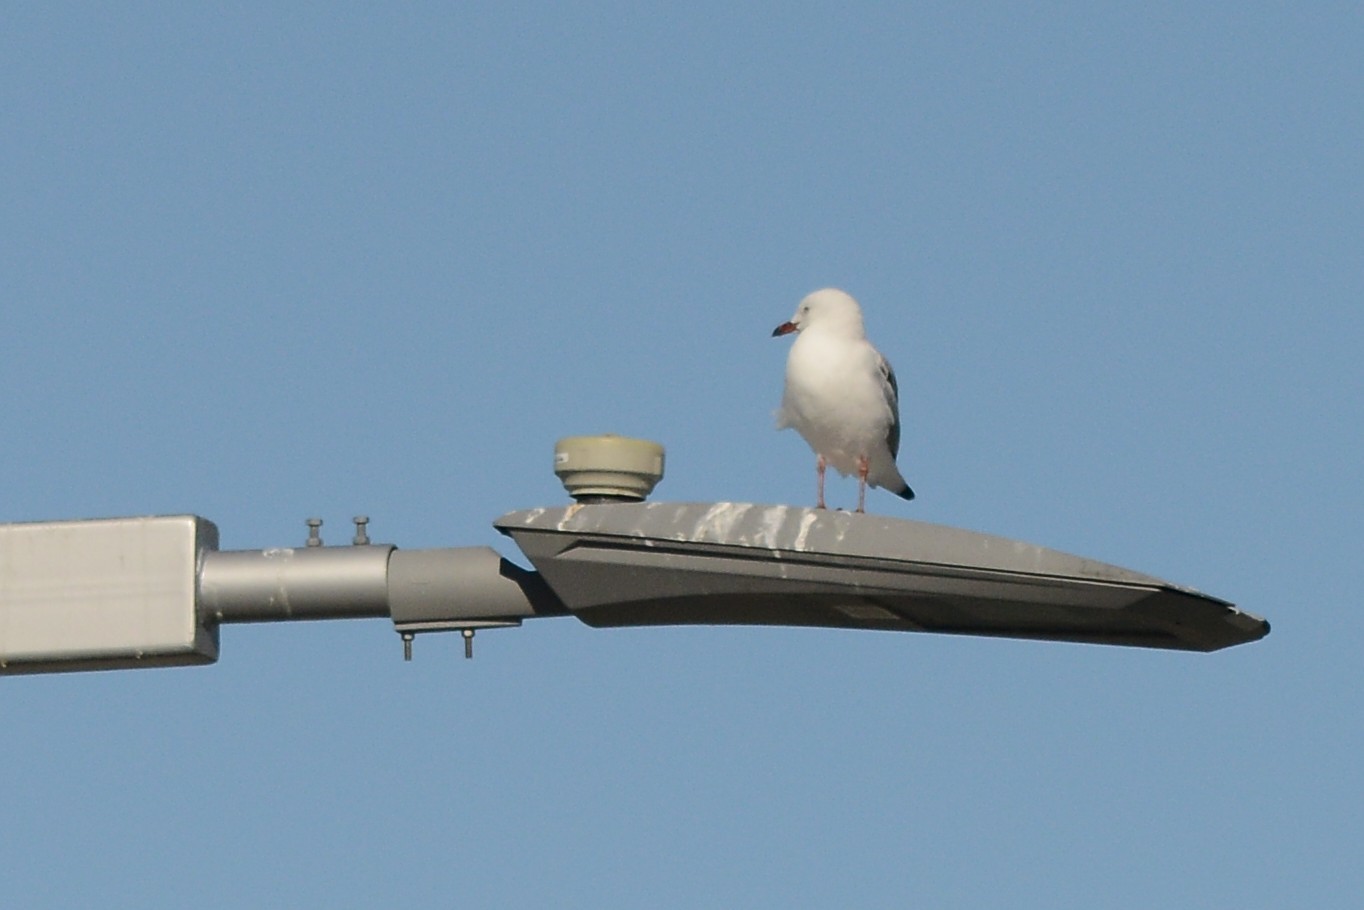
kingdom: Animalia
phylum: Chordata
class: Aves
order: Charadriiformes
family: Laridae
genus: Chroicocephalus
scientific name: Chroicocephalus novaehollandiae
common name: Silver gull
